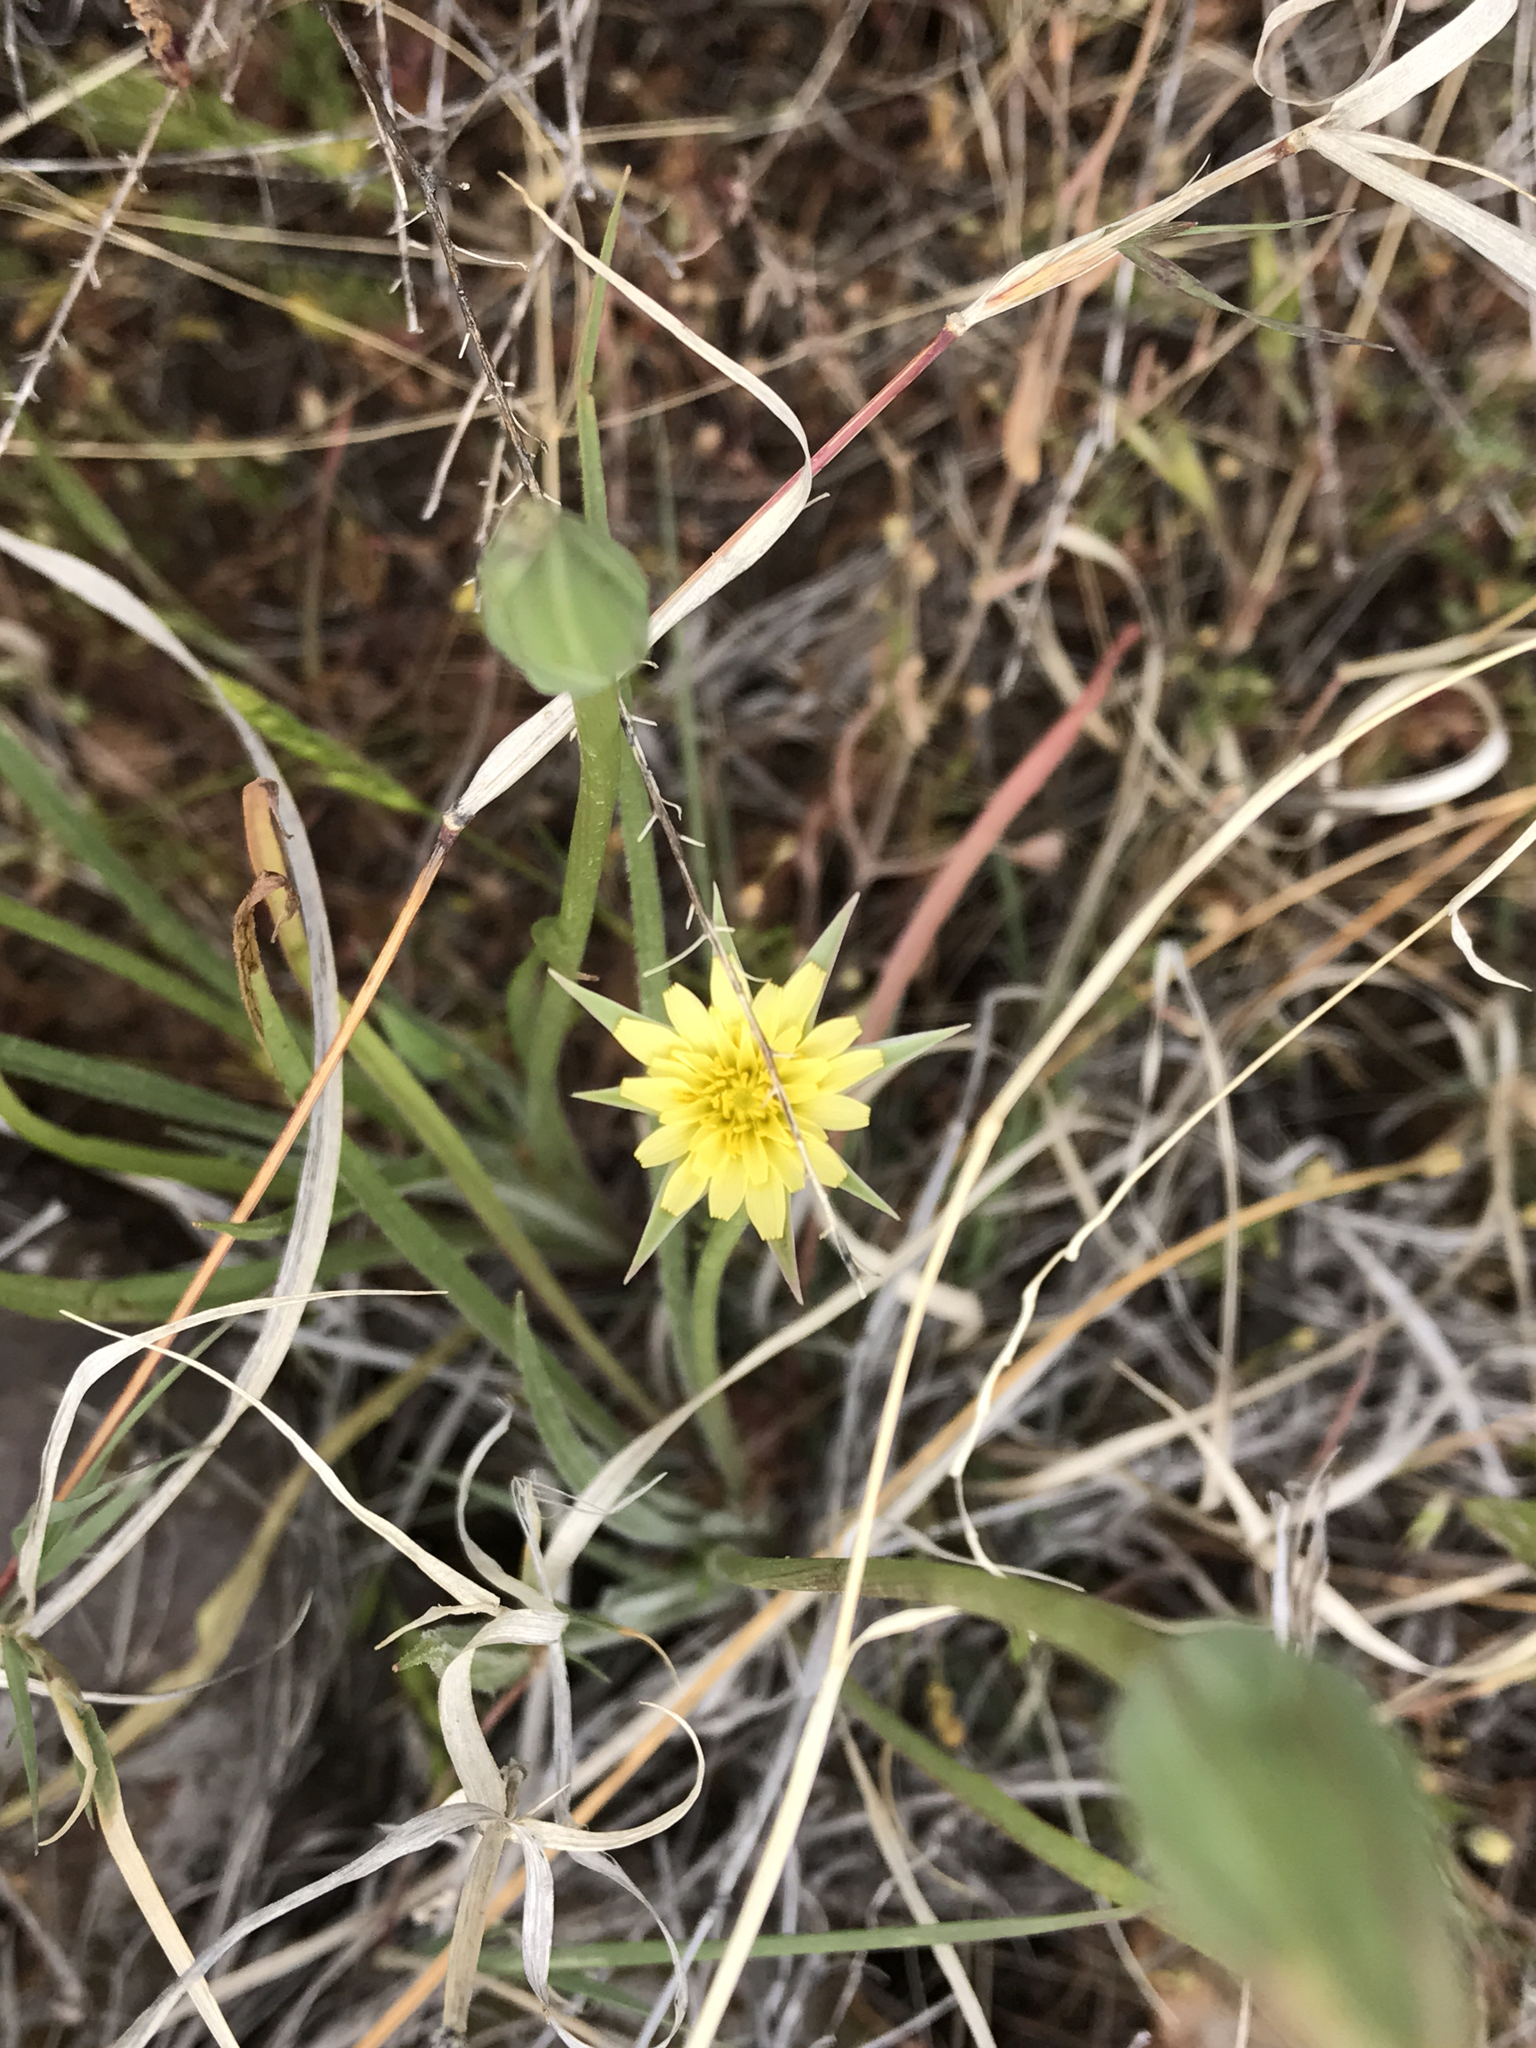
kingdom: Plantae
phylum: Tracheophyta
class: Magnoliopsida
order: Asterales
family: Asteraceae
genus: Microseris
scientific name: Microseris lindleyi
